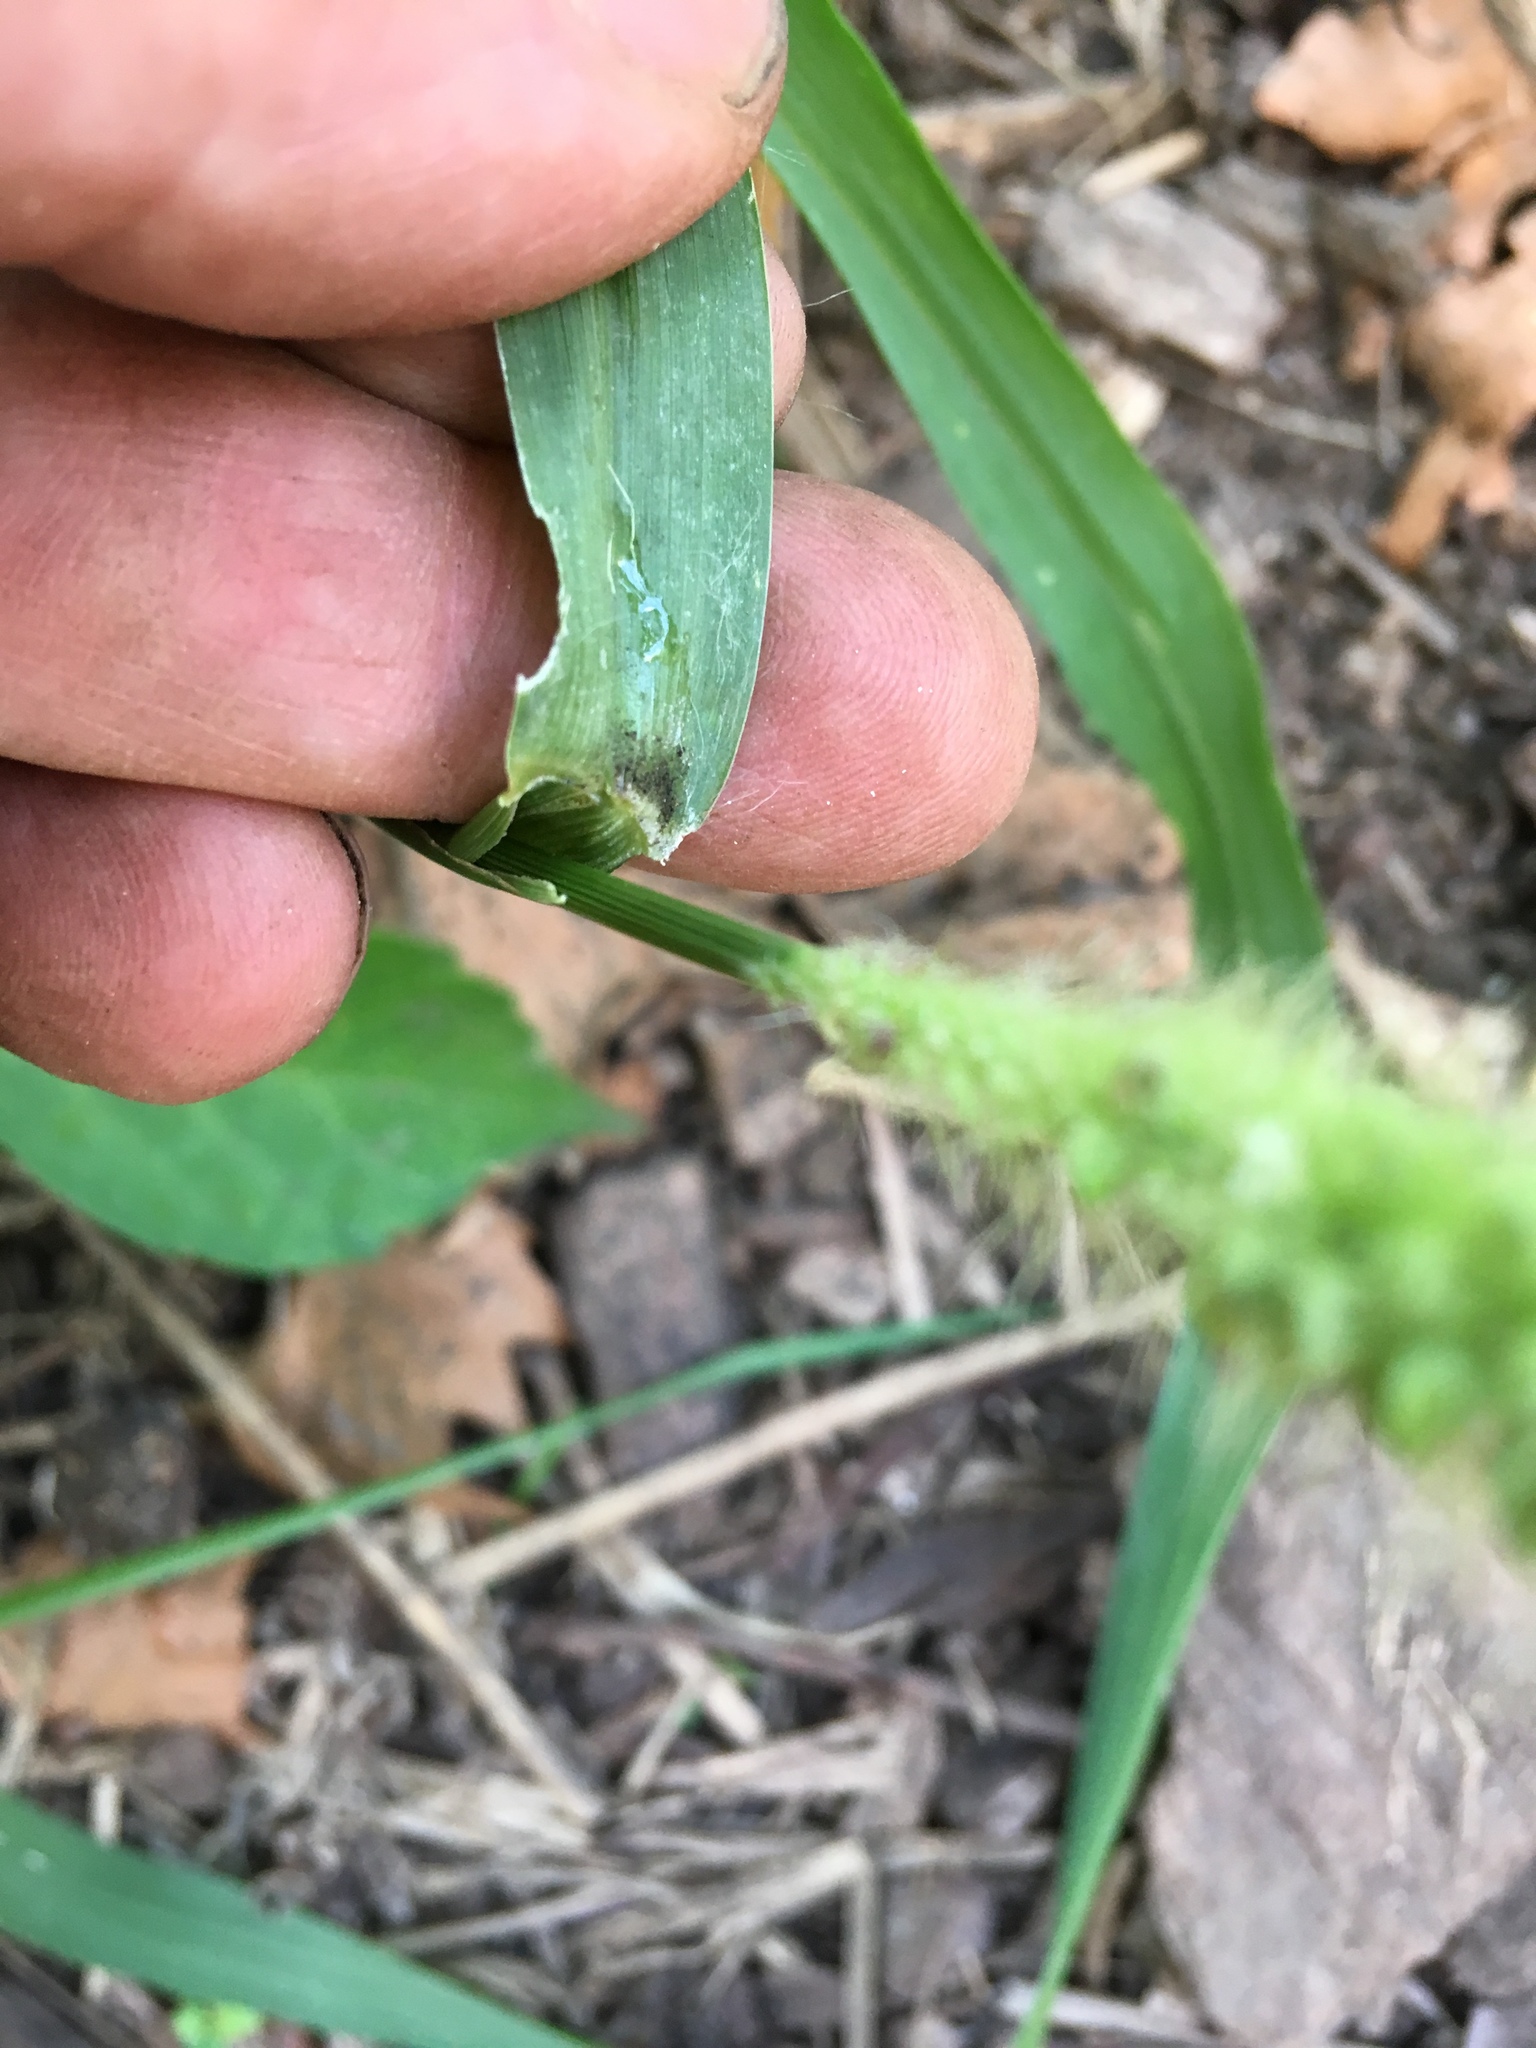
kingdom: Plantae
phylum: Tracheophyta
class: Liliopsida
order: Poales
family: Poaceae
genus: Setaria
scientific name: Setaria faberi
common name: Nodding bristle-grass
